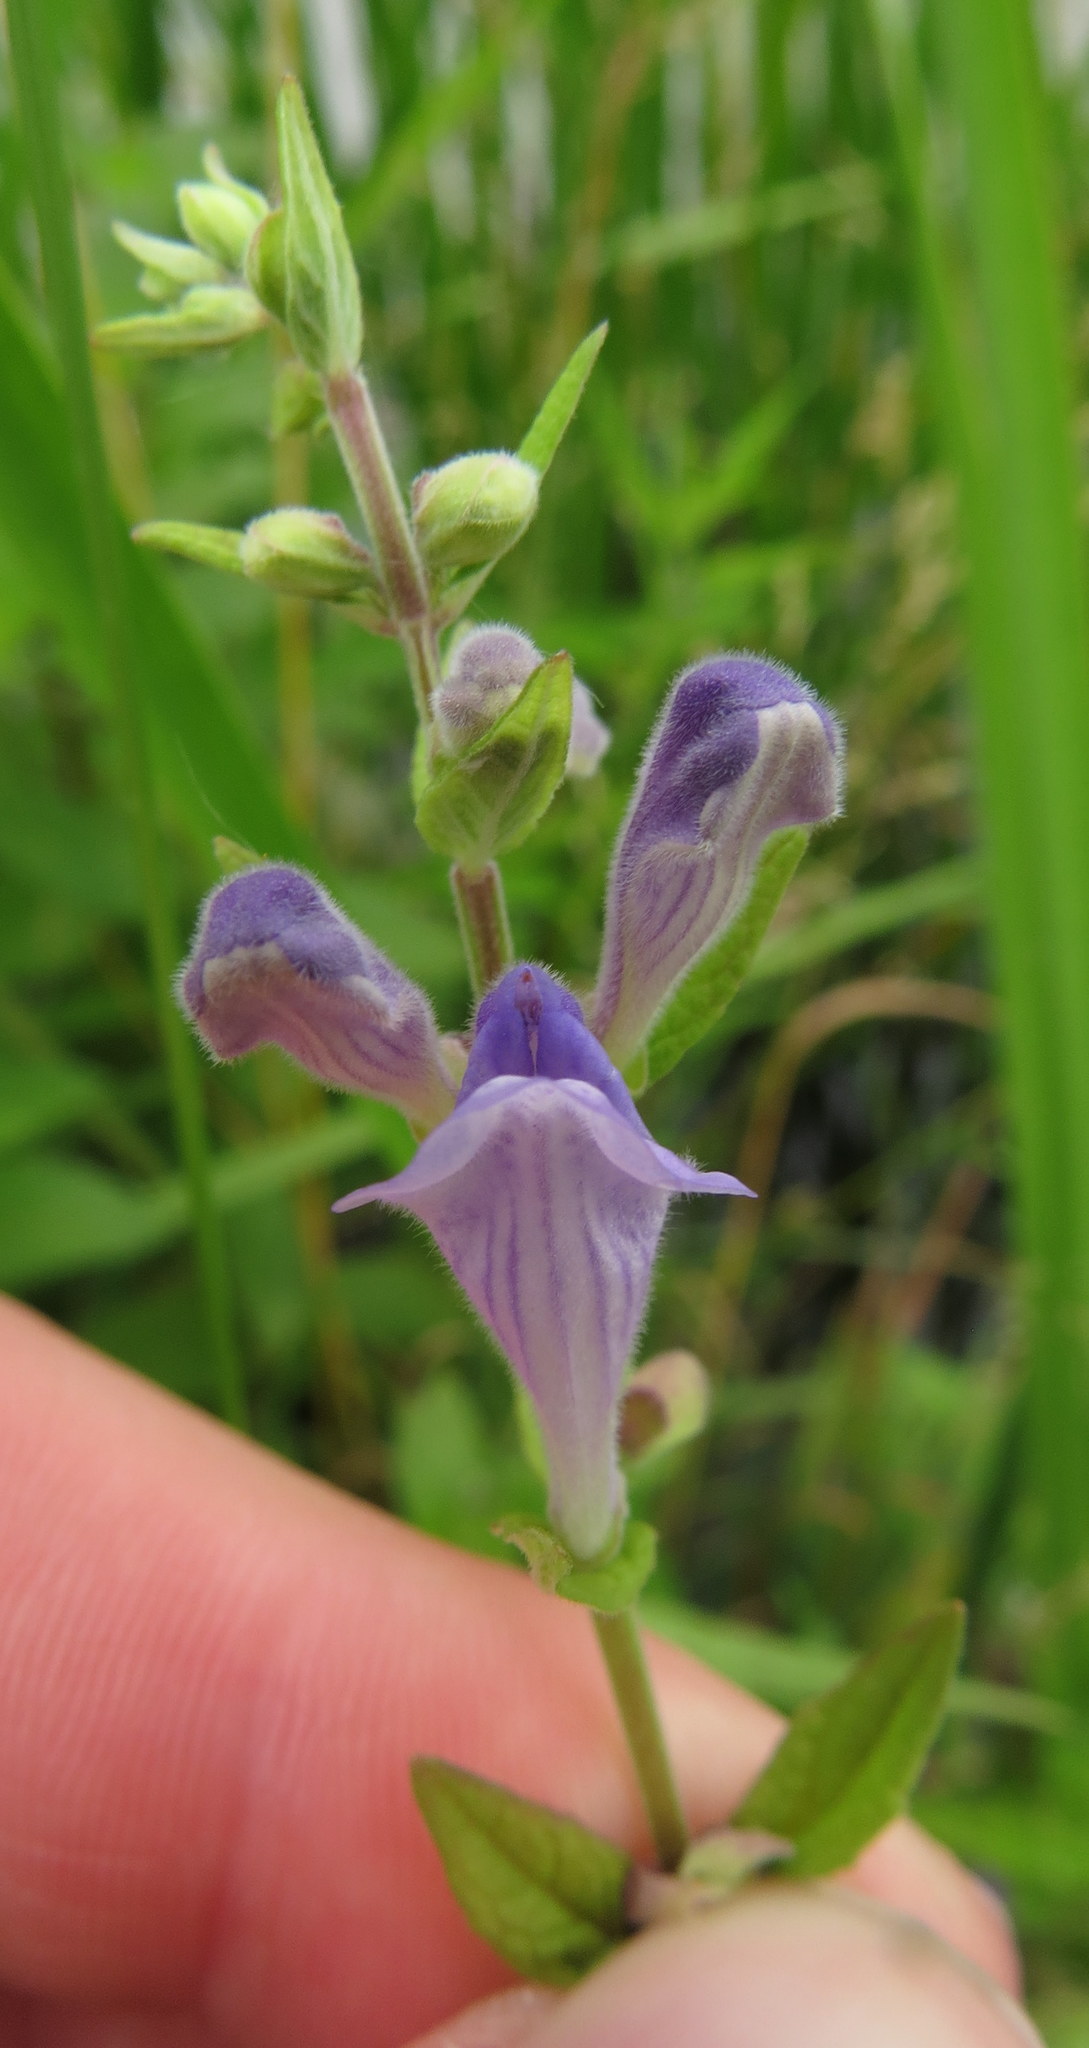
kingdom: Plantae
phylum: Tracheophyta
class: Magnoliopsida
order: Lamiales
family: Lamiaceae
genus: Scutellaria
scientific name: Scutellaria galericulata
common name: Skullcap
